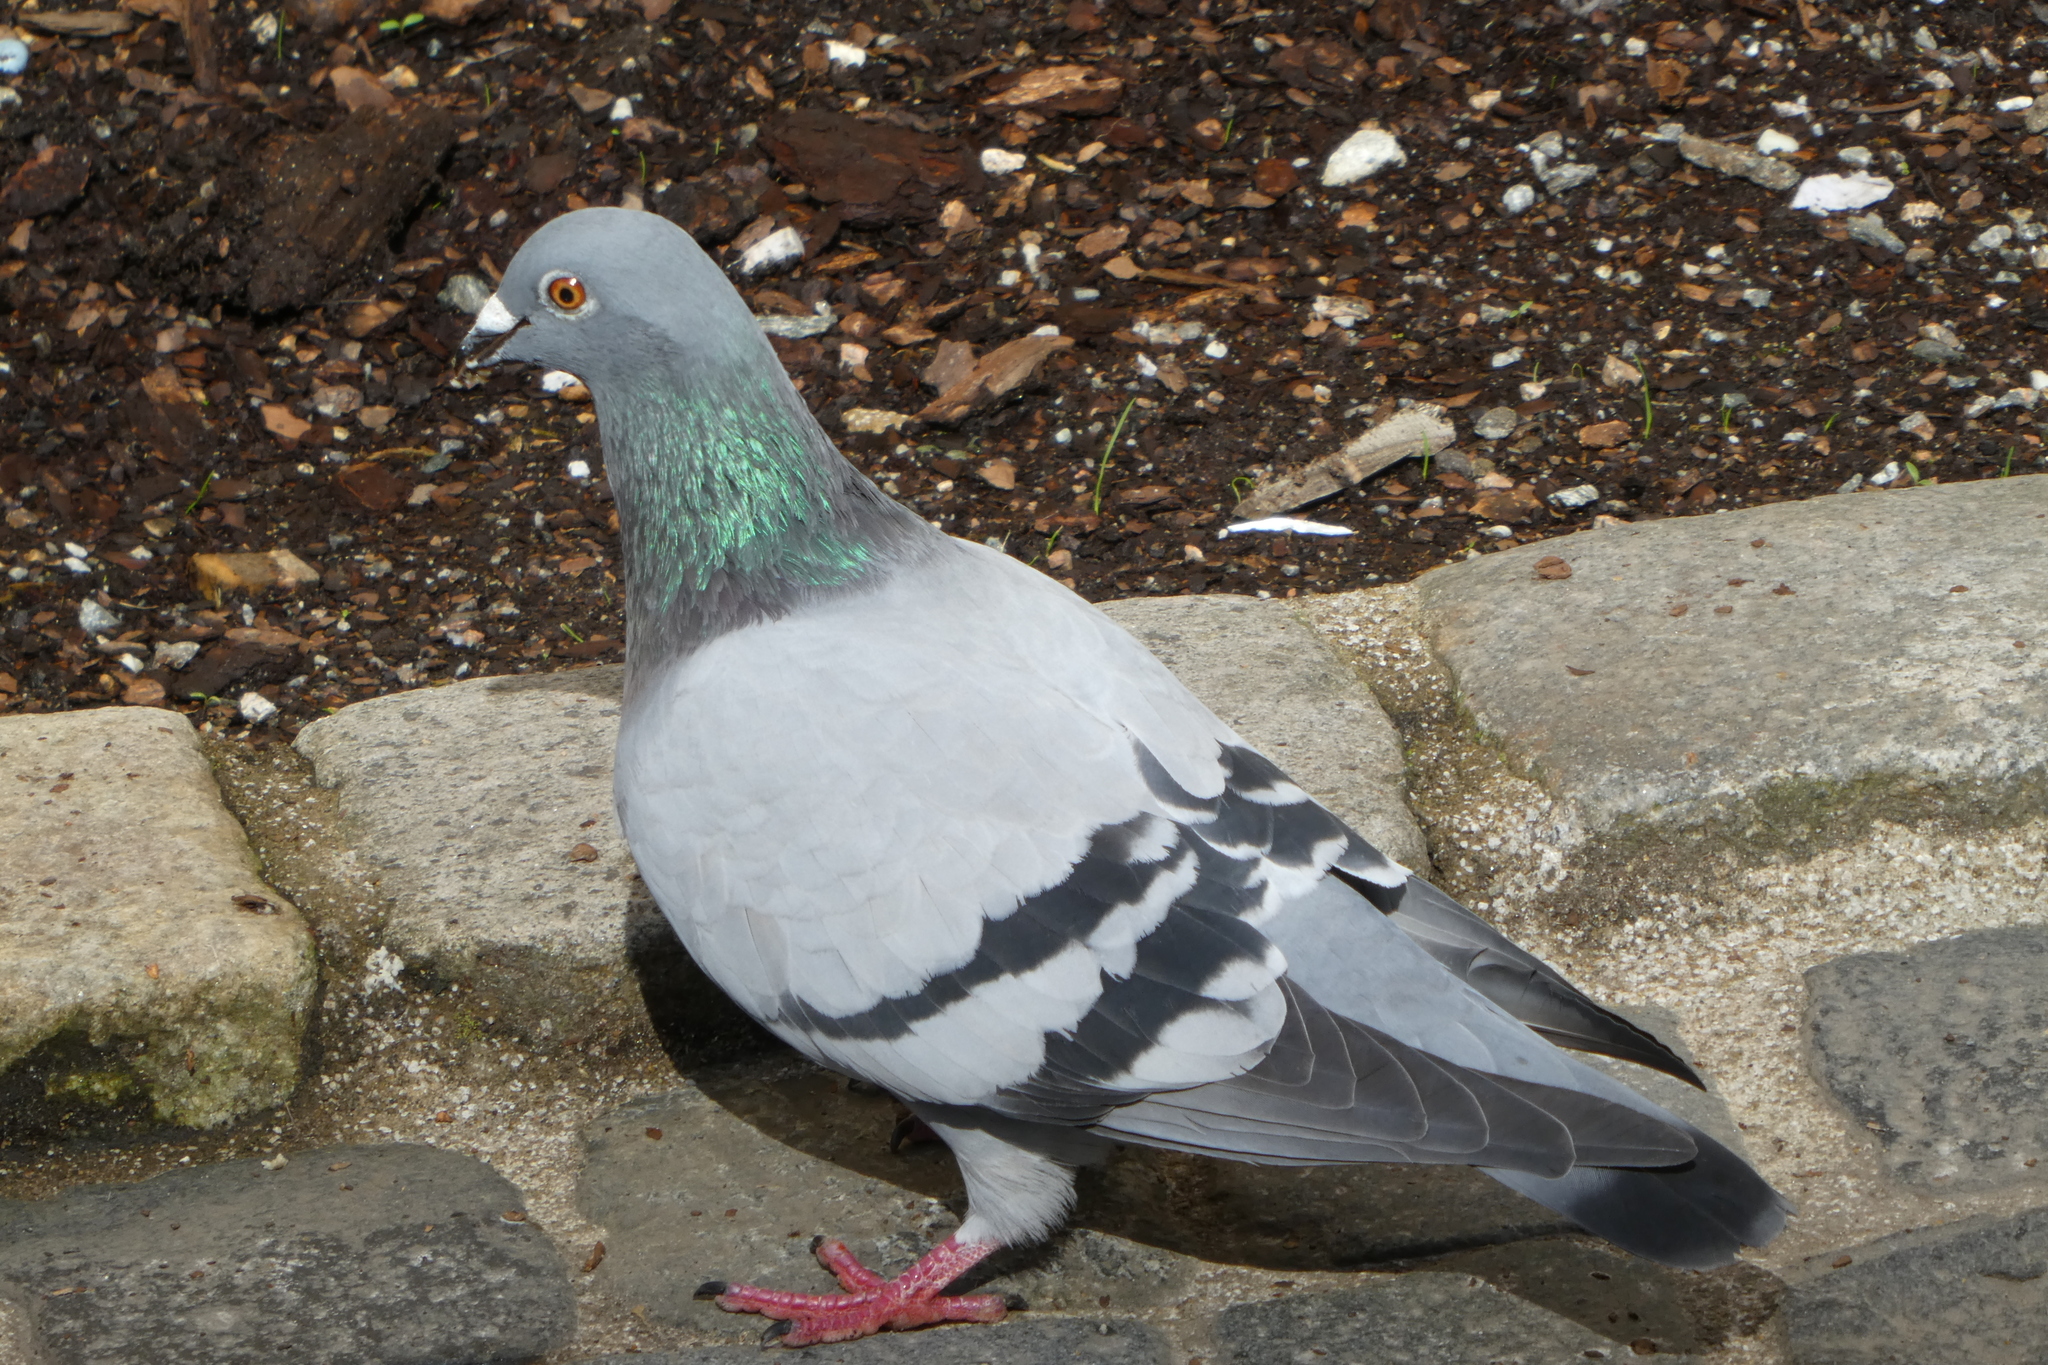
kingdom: Animalia
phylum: Chordata
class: Aves
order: Columbiformes
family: Columbidae
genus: Columba
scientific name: Columba livia
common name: Rock pigeon
